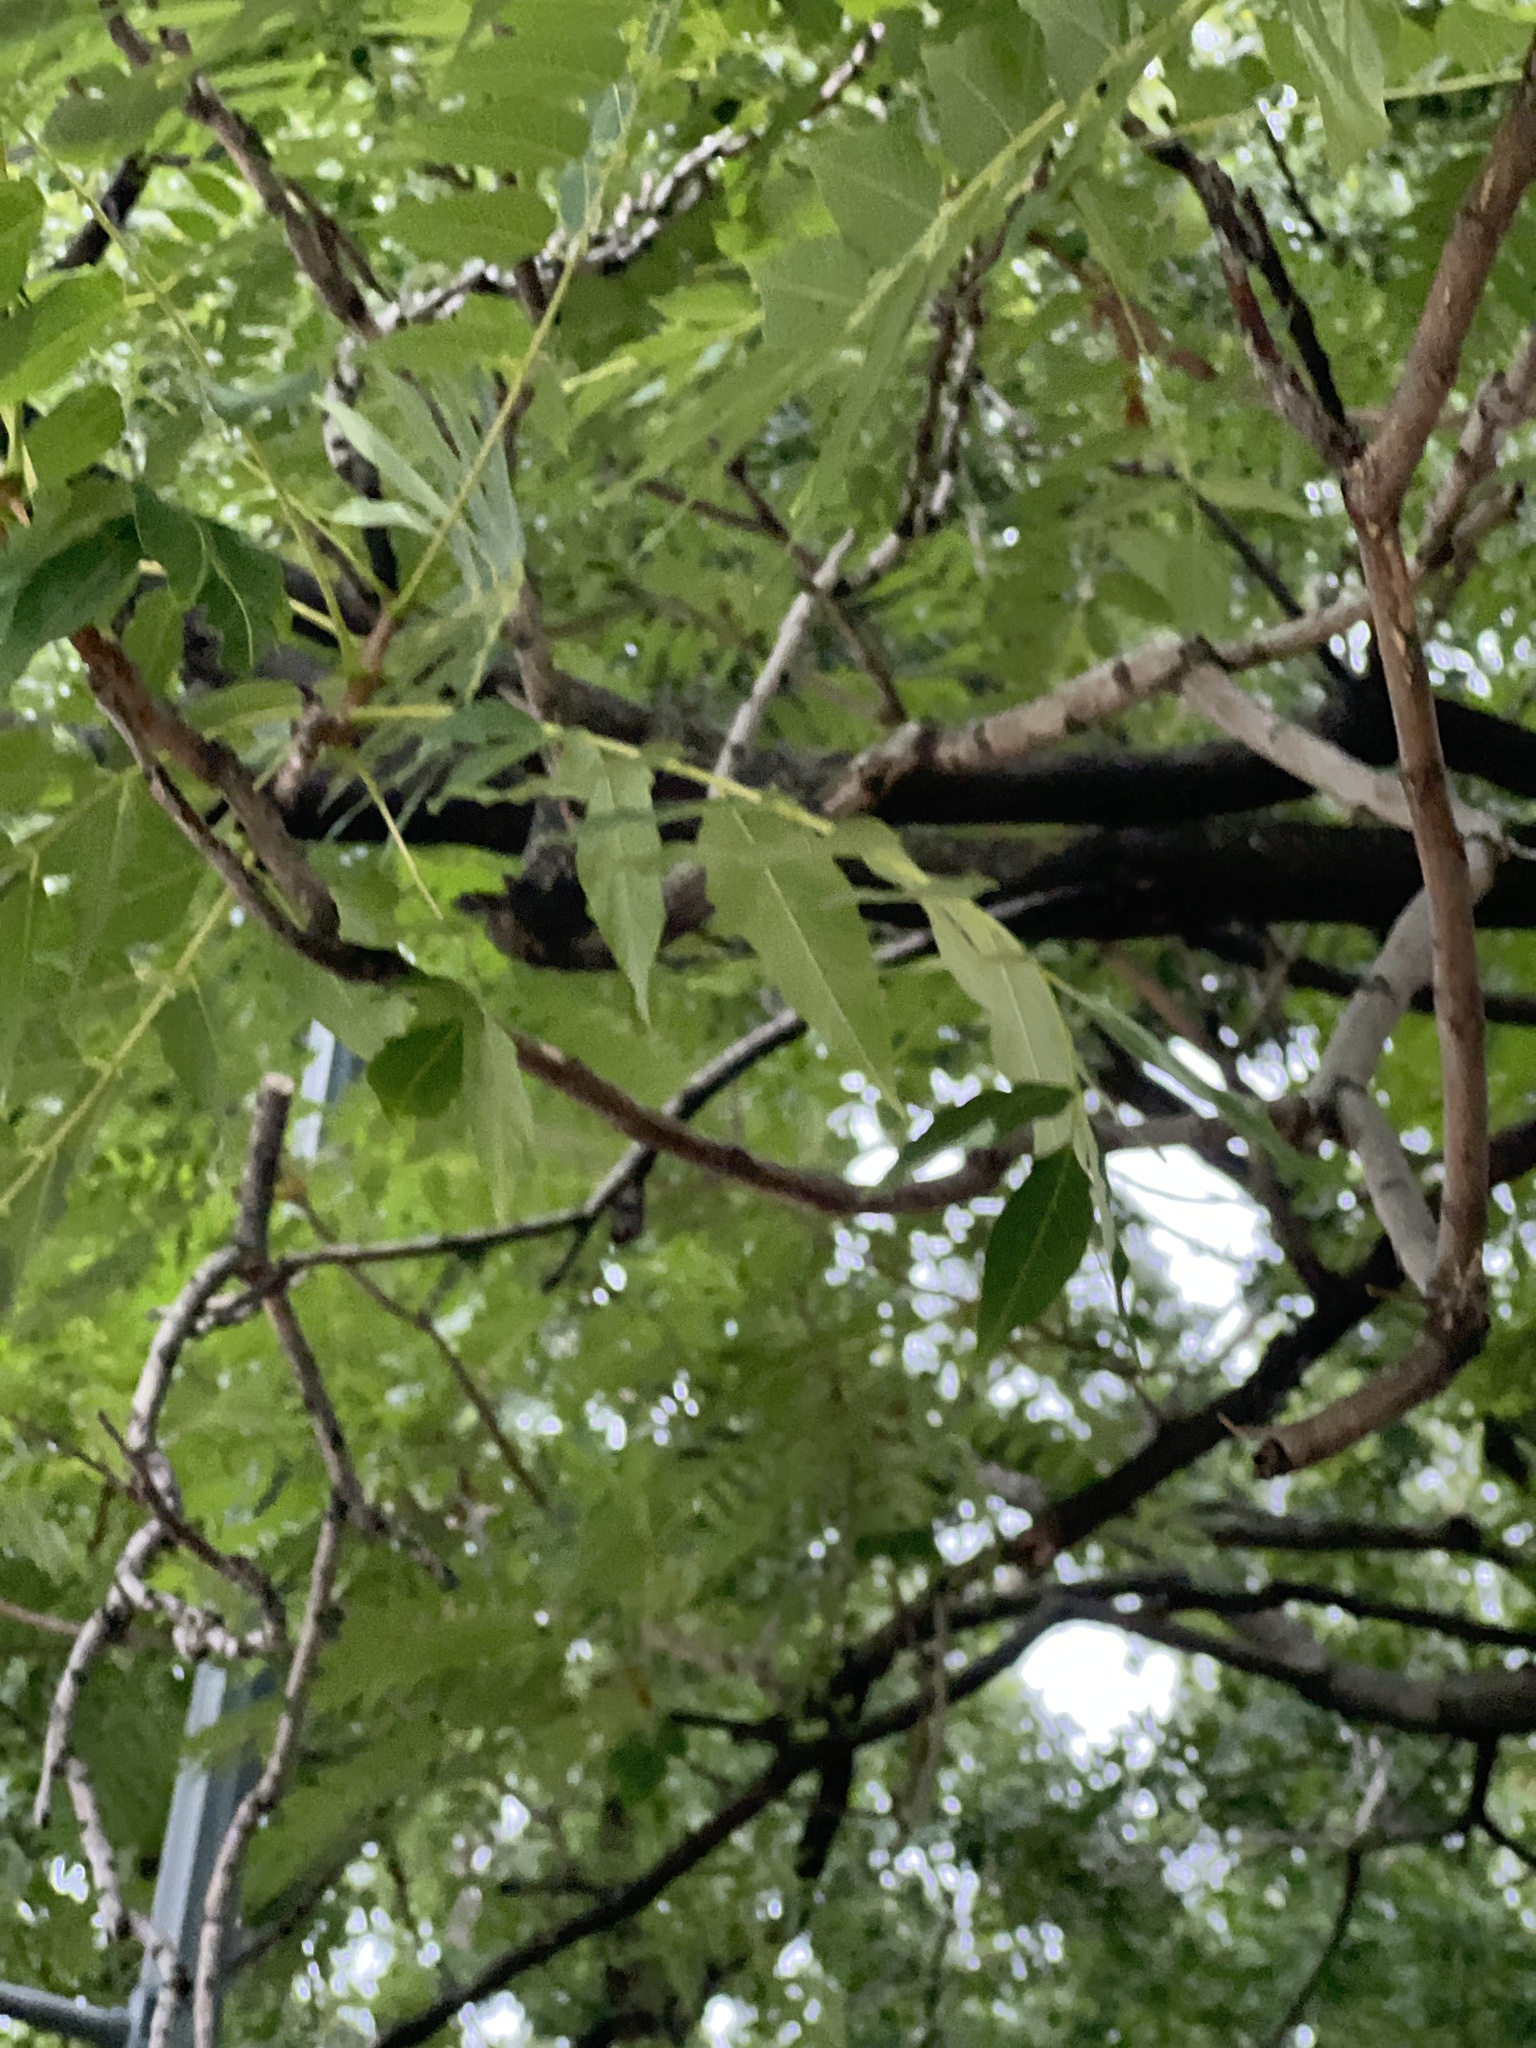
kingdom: Plantae
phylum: Tracheophyta
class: Magnoliopsida
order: Sapindales
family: Simaroubaceae
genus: Ailanthus
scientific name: Ailanthus altissima
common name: Tree-of-heaven
